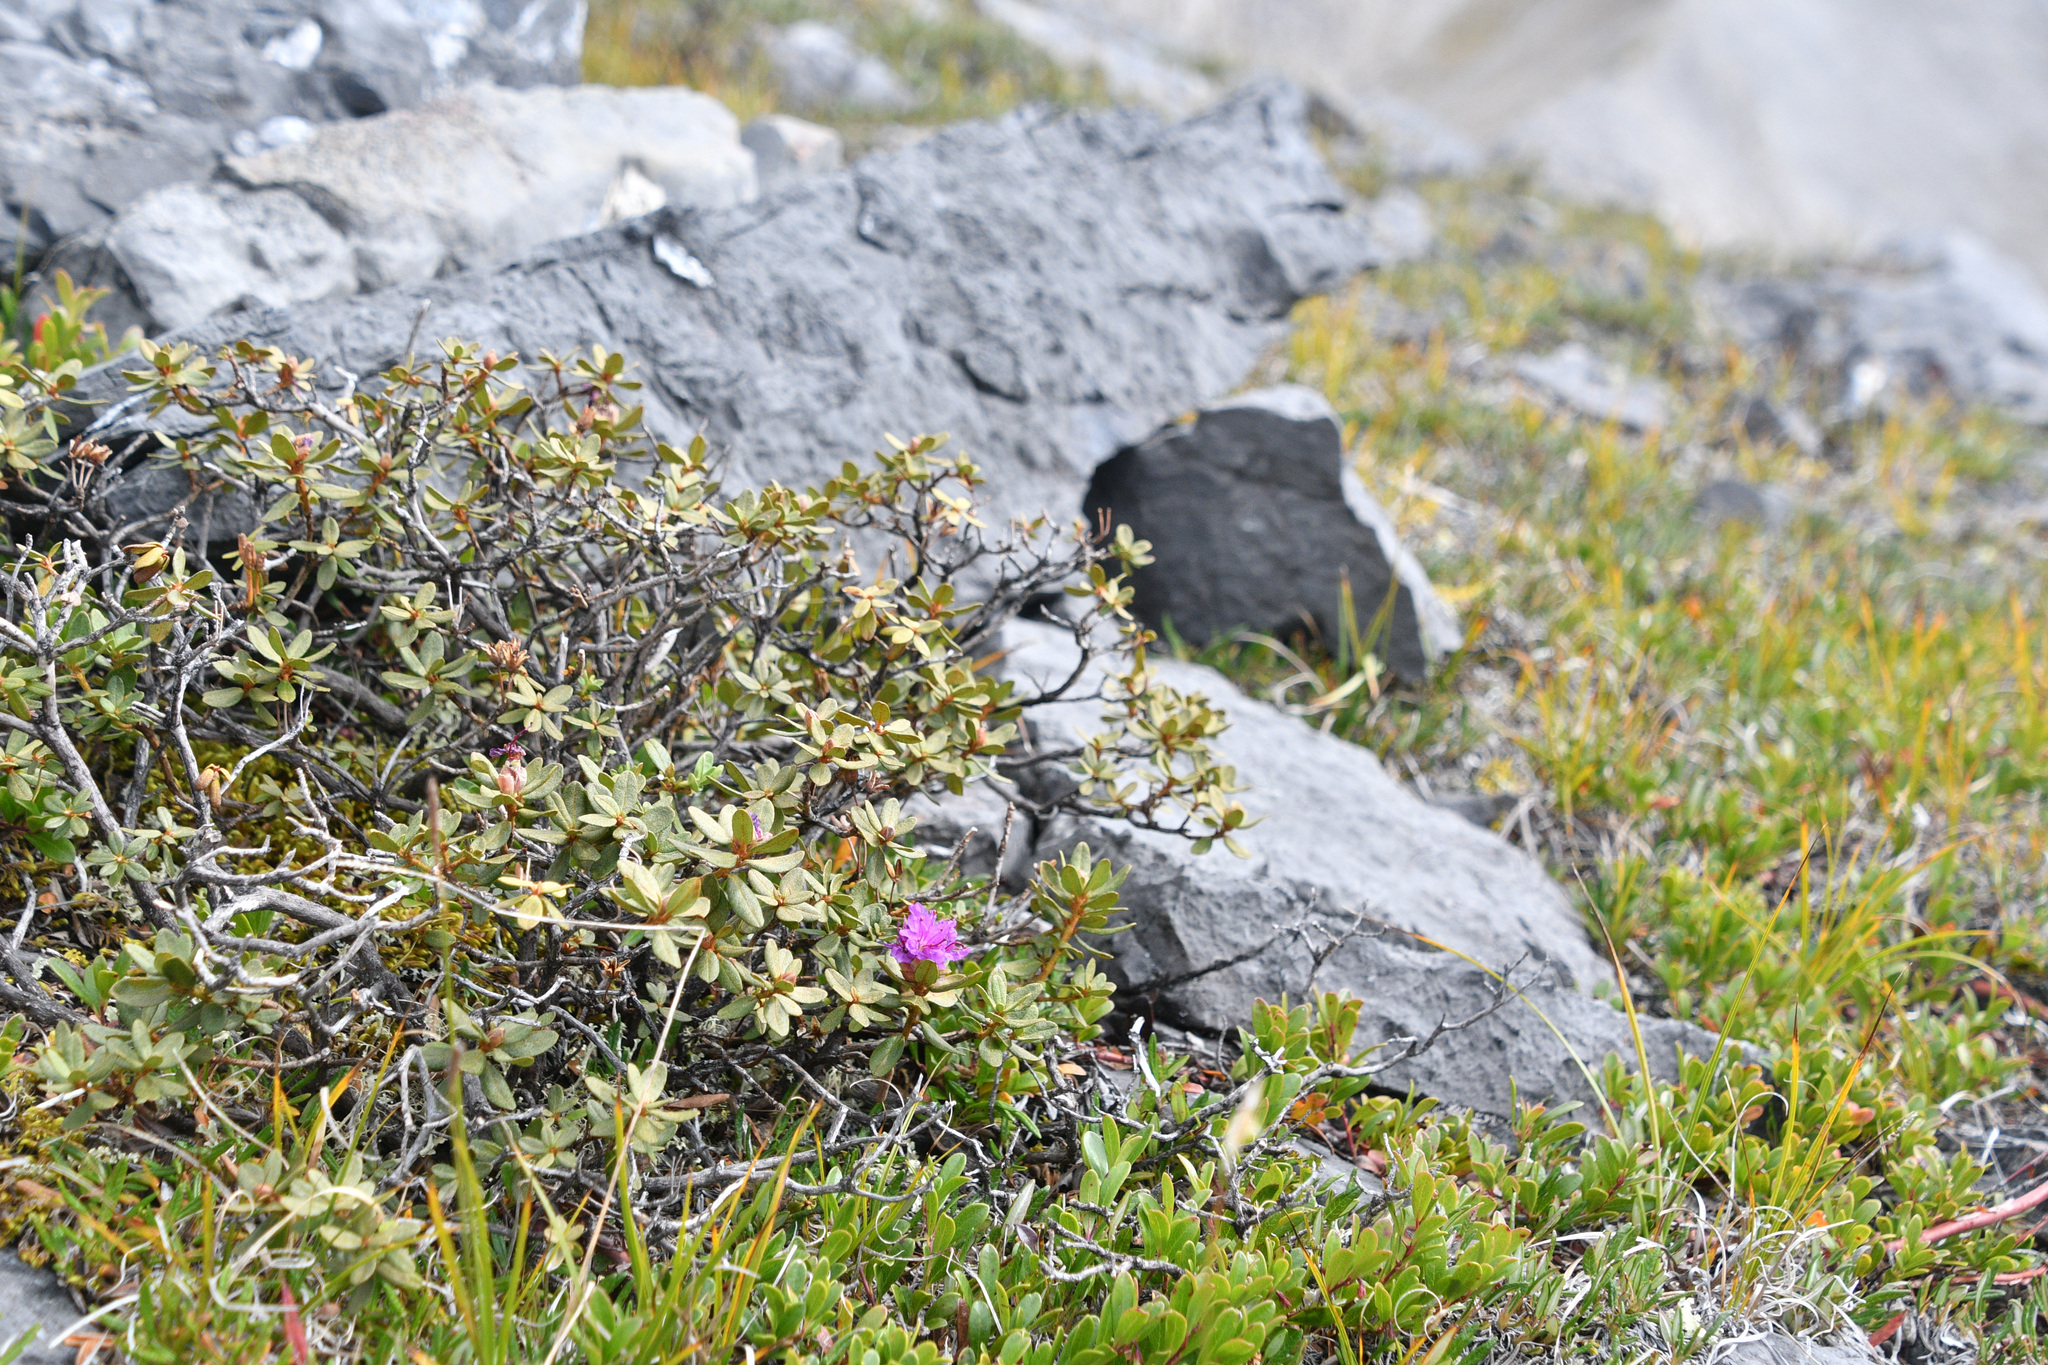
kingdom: Plantae
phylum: Tracheophyta
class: Magnoliopsida
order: Ericales
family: Ericaceae
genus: Rhododendron
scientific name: Rhododendron lapponicum
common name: Lapland rhododendron
